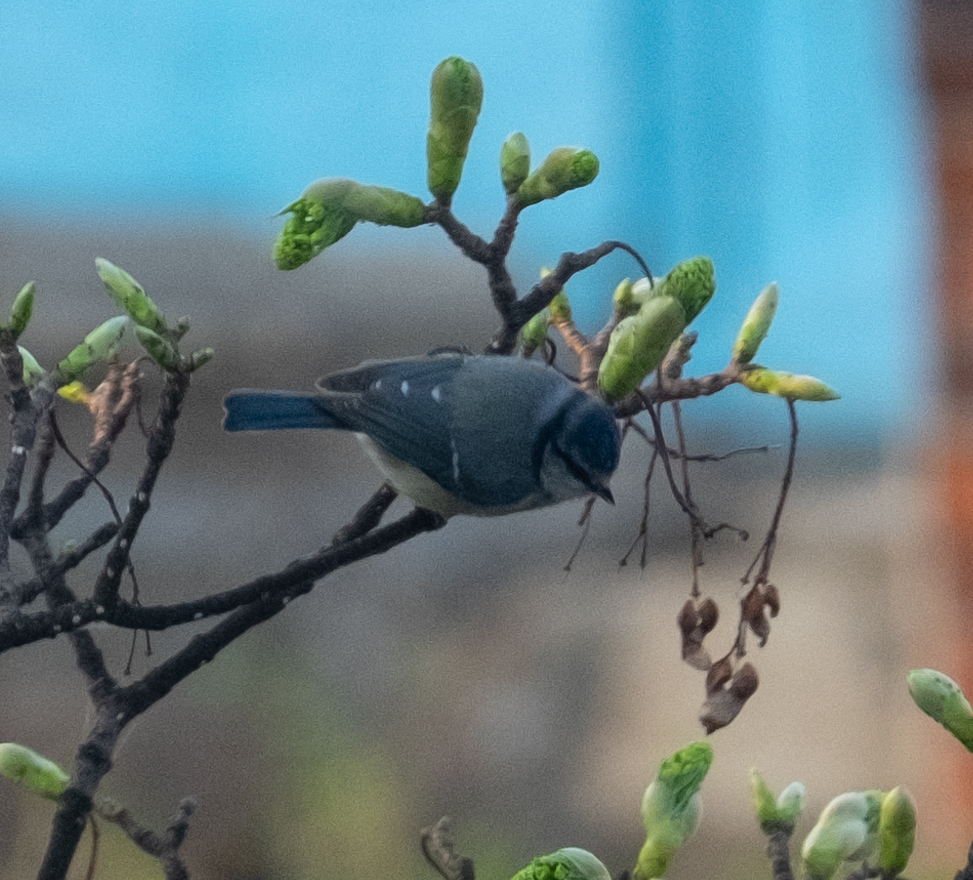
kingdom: Animalia
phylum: Chordata
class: Aves
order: Passeriformes
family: Paridae
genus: Cyanistes
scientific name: Cyanistes caeruleus
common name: Eurasian blue tit
